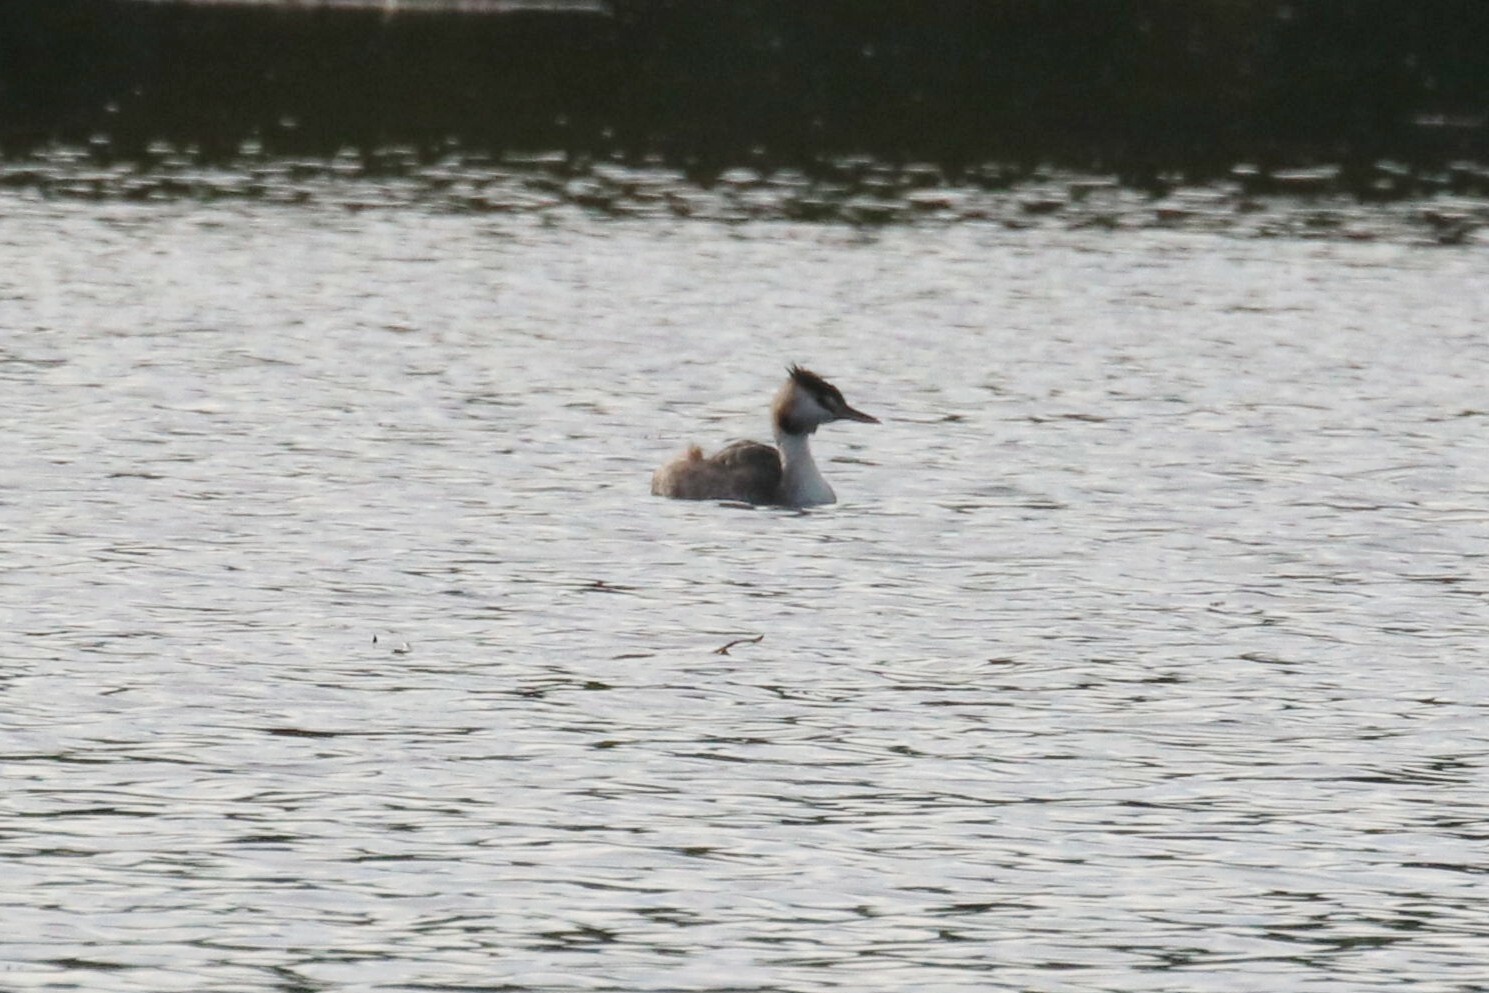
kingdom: Animalia
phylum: Chordata
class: Aves
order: Podicipediformes
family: Podicipedidae
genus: Podiceps
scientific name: Podiceps cristatus
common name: Great crested grebe
